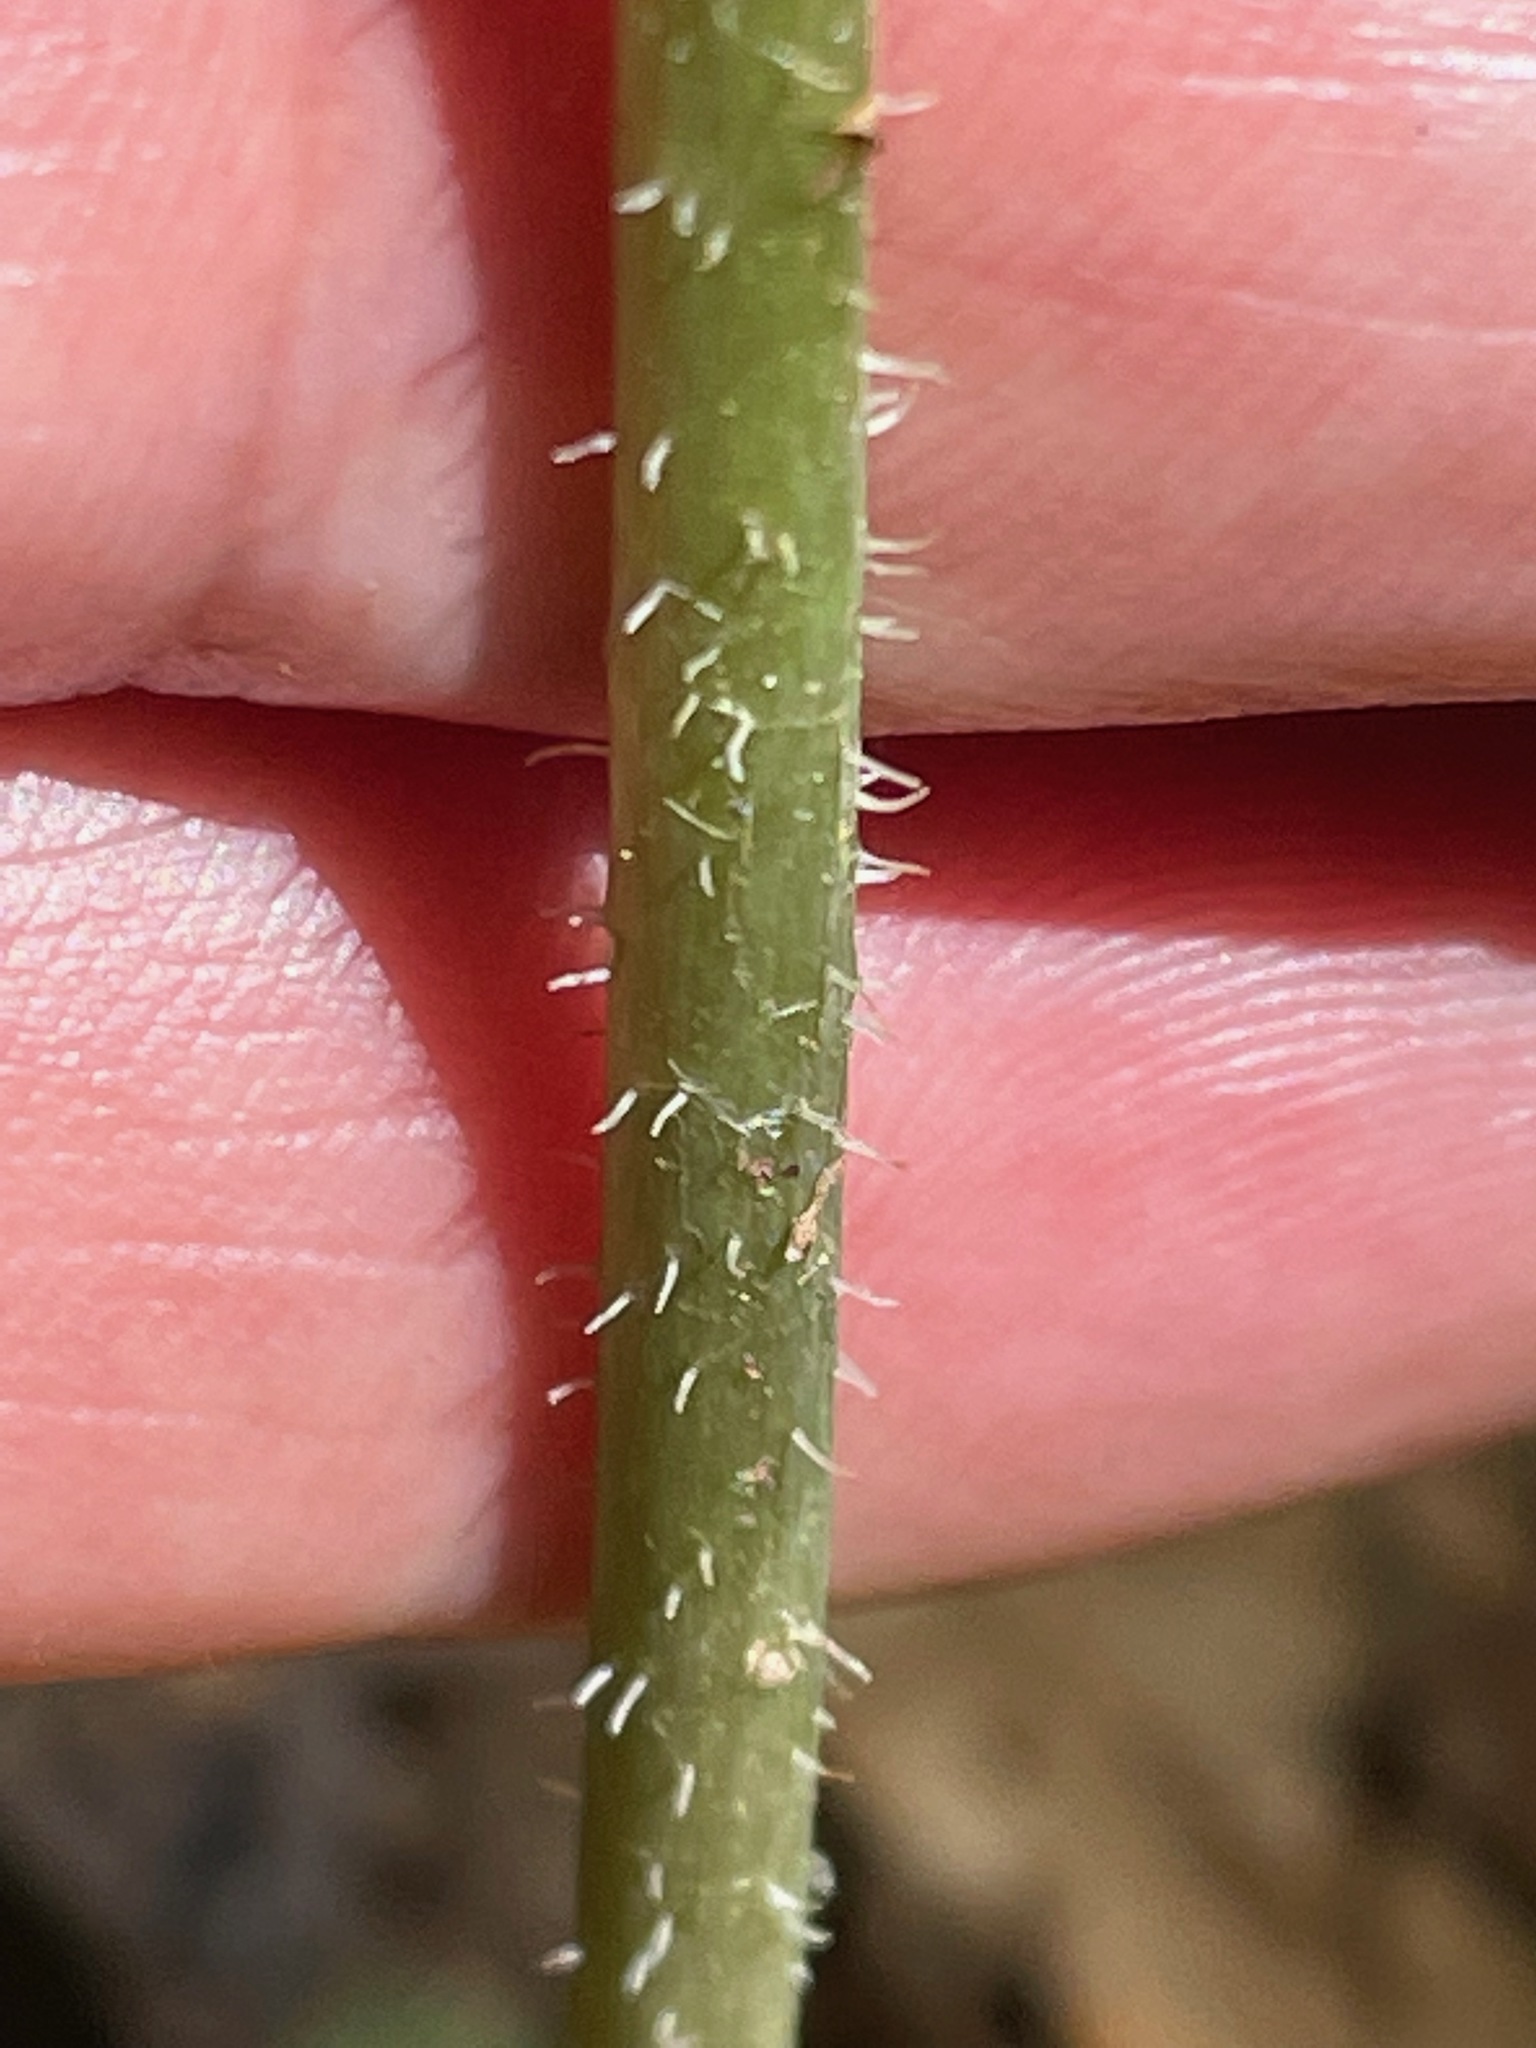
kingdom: Plantae
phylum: Tracheophyta
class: Liliopsida
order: Liliales
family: Liliaceae
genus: Streptopus
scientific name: Streptopus amplexifolius
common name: Clasp twisted stalk
